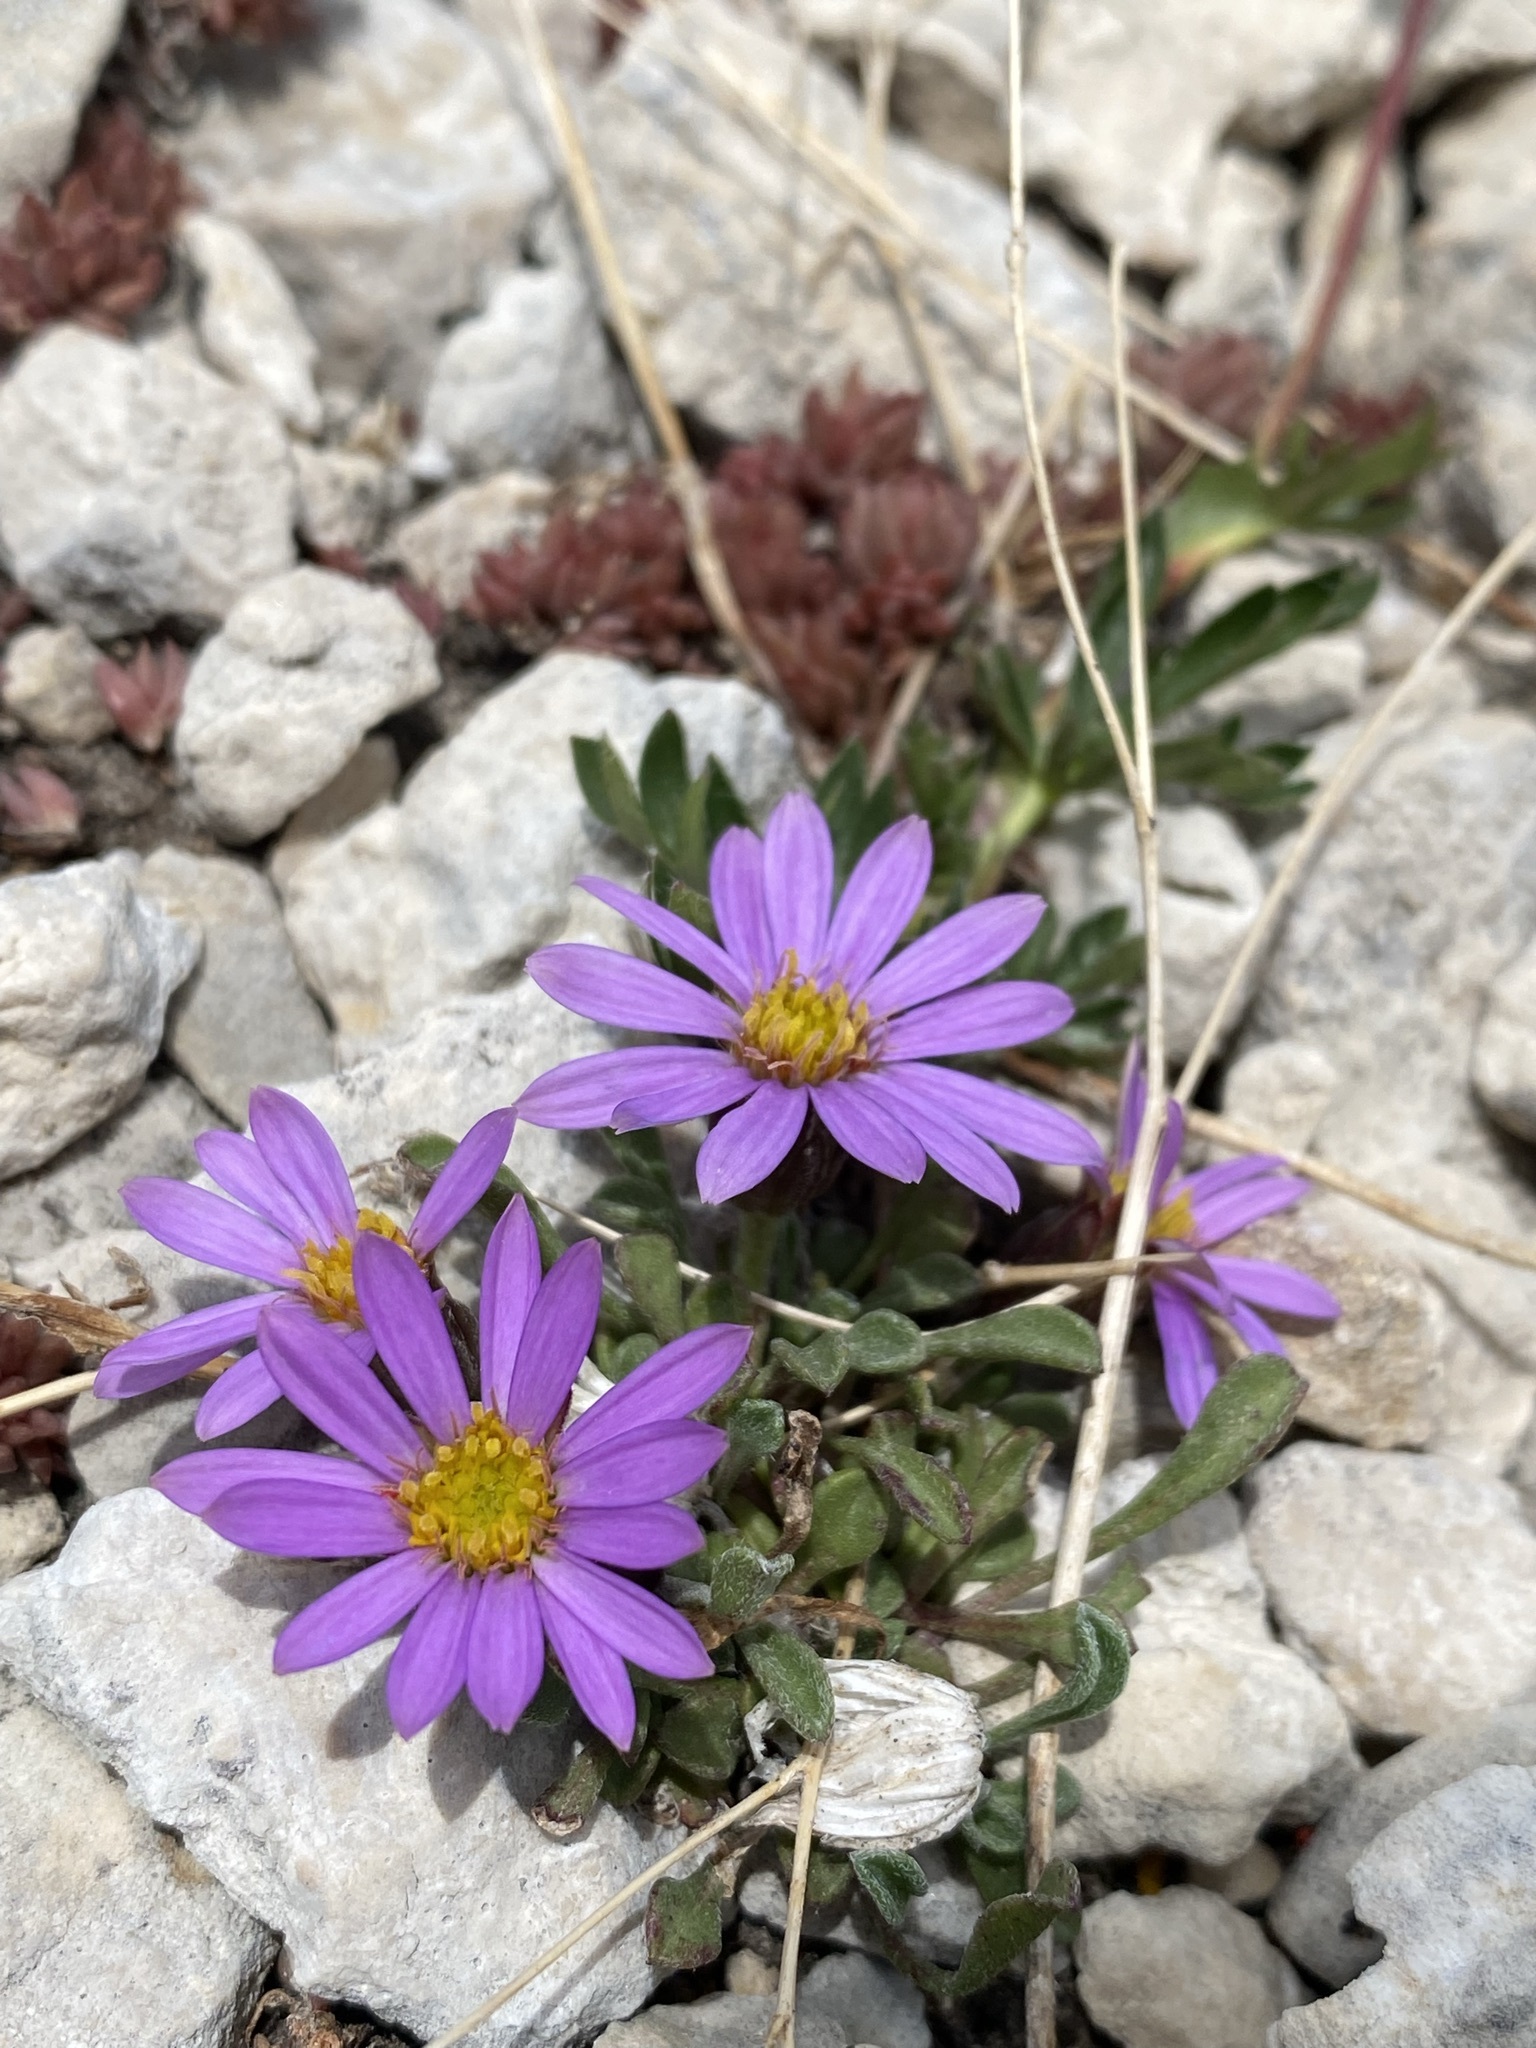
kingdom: Plantae
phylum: Tracheophyta
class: Magnoliopsida
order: Asterales
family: Asteraceae
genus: Townsendia
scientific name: Townsendia montana
